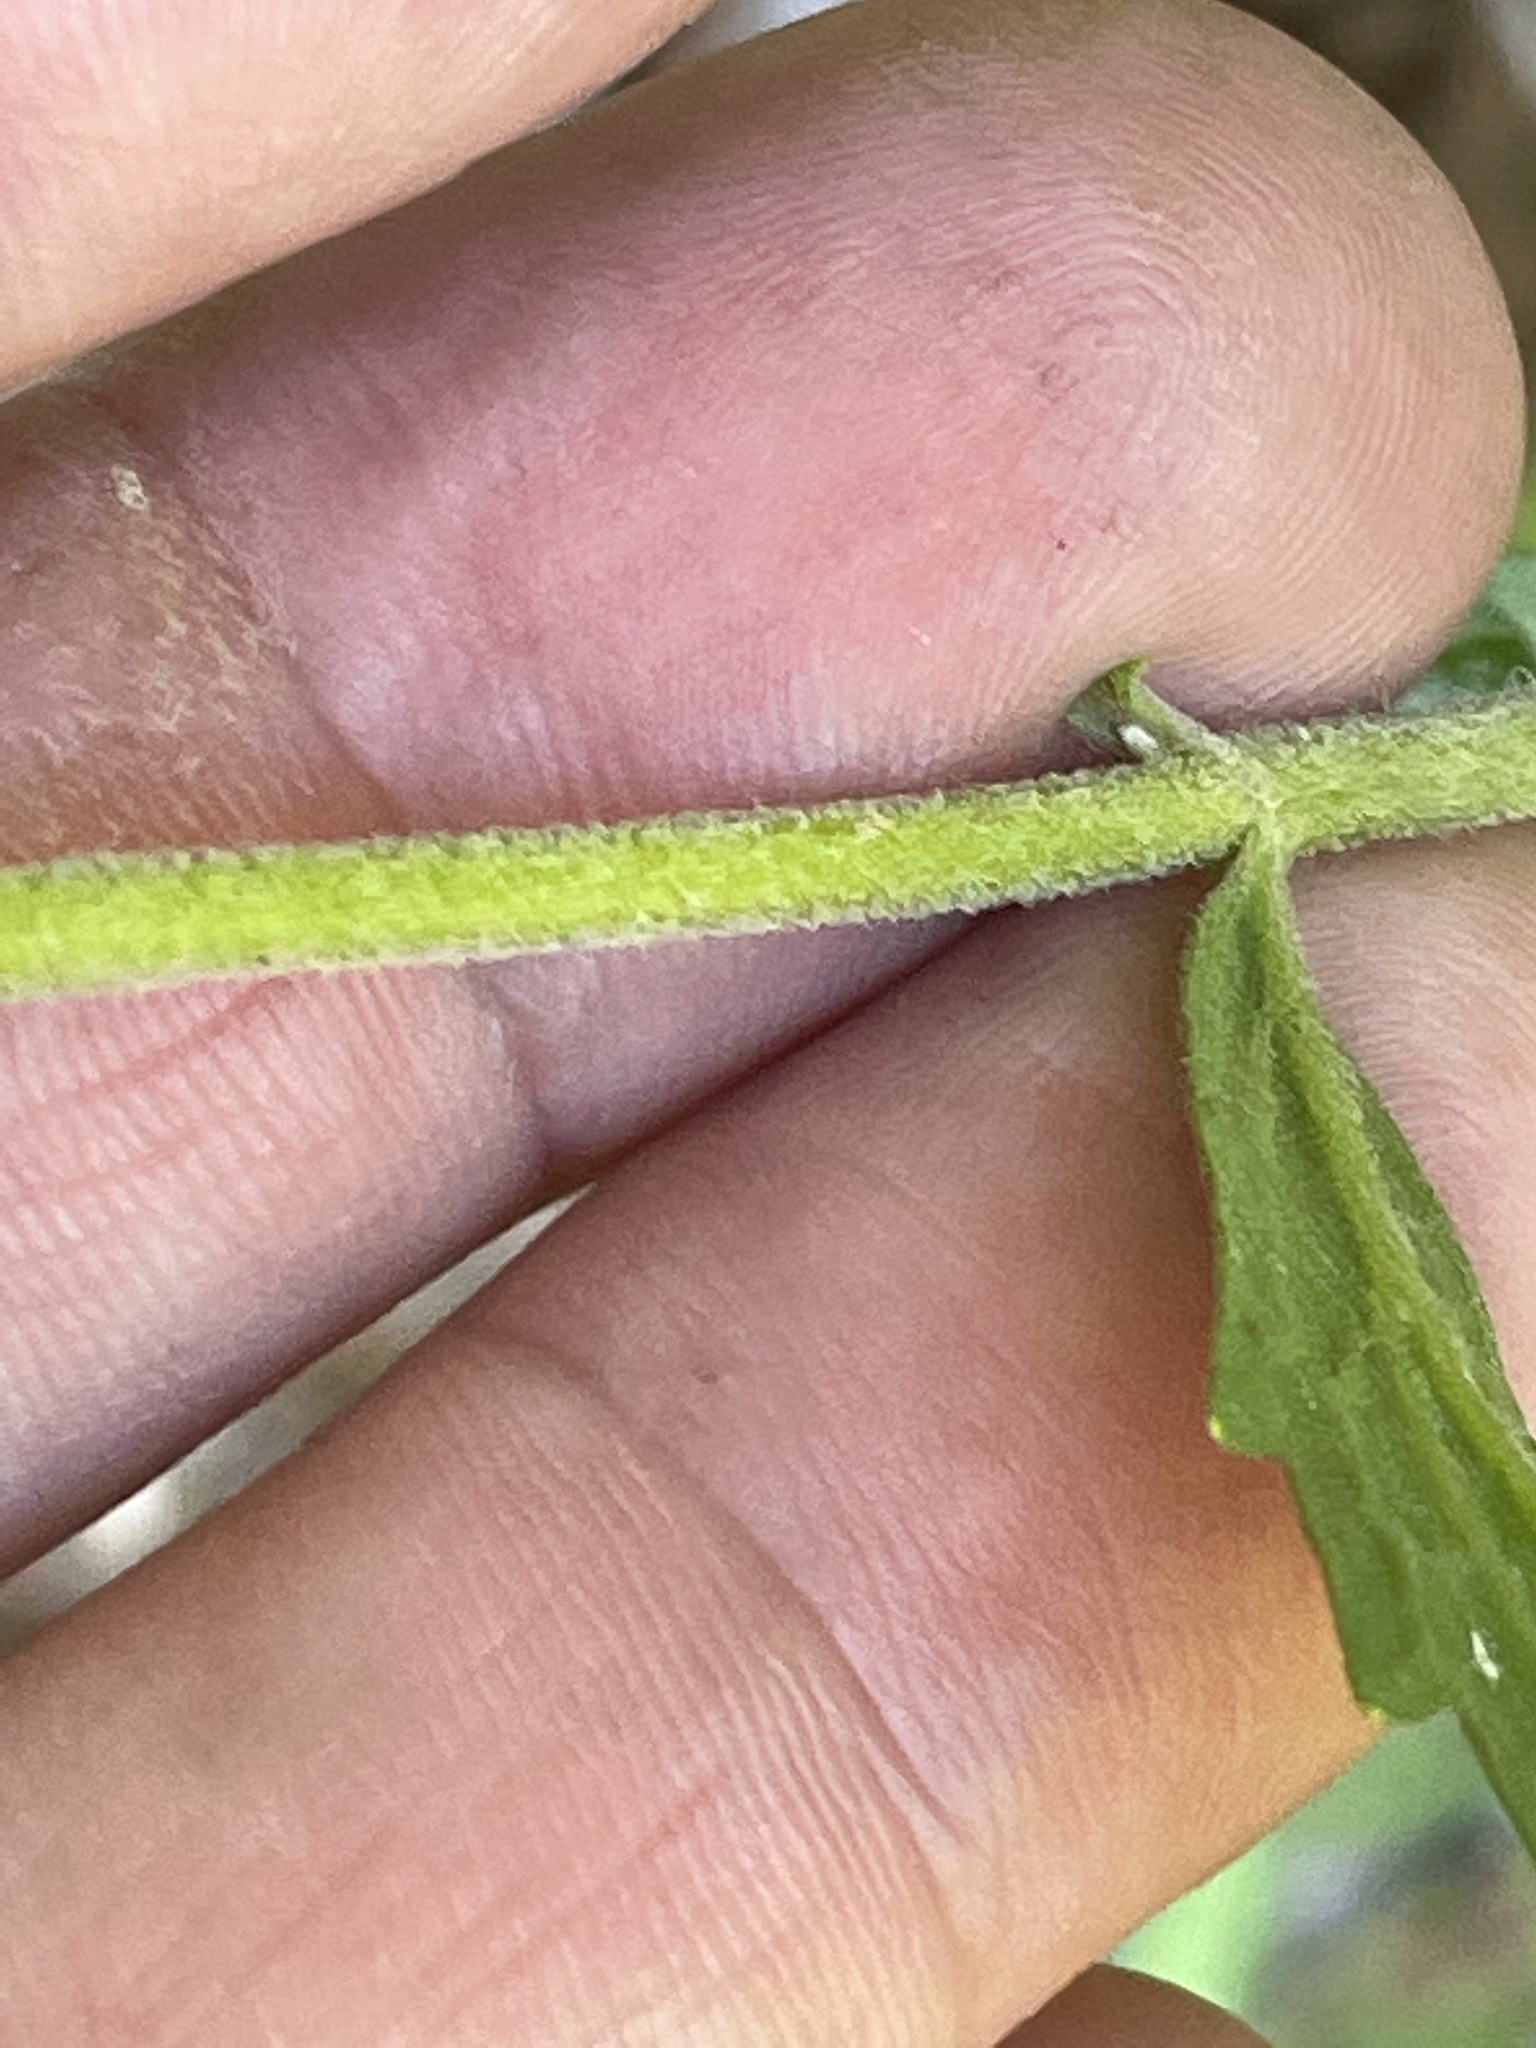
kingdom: Plantae
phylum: Tracheophyta
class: Magnoliopsida
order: Asterales
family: Asteraceae
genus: Eupatorium
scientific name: Eupatorium album
